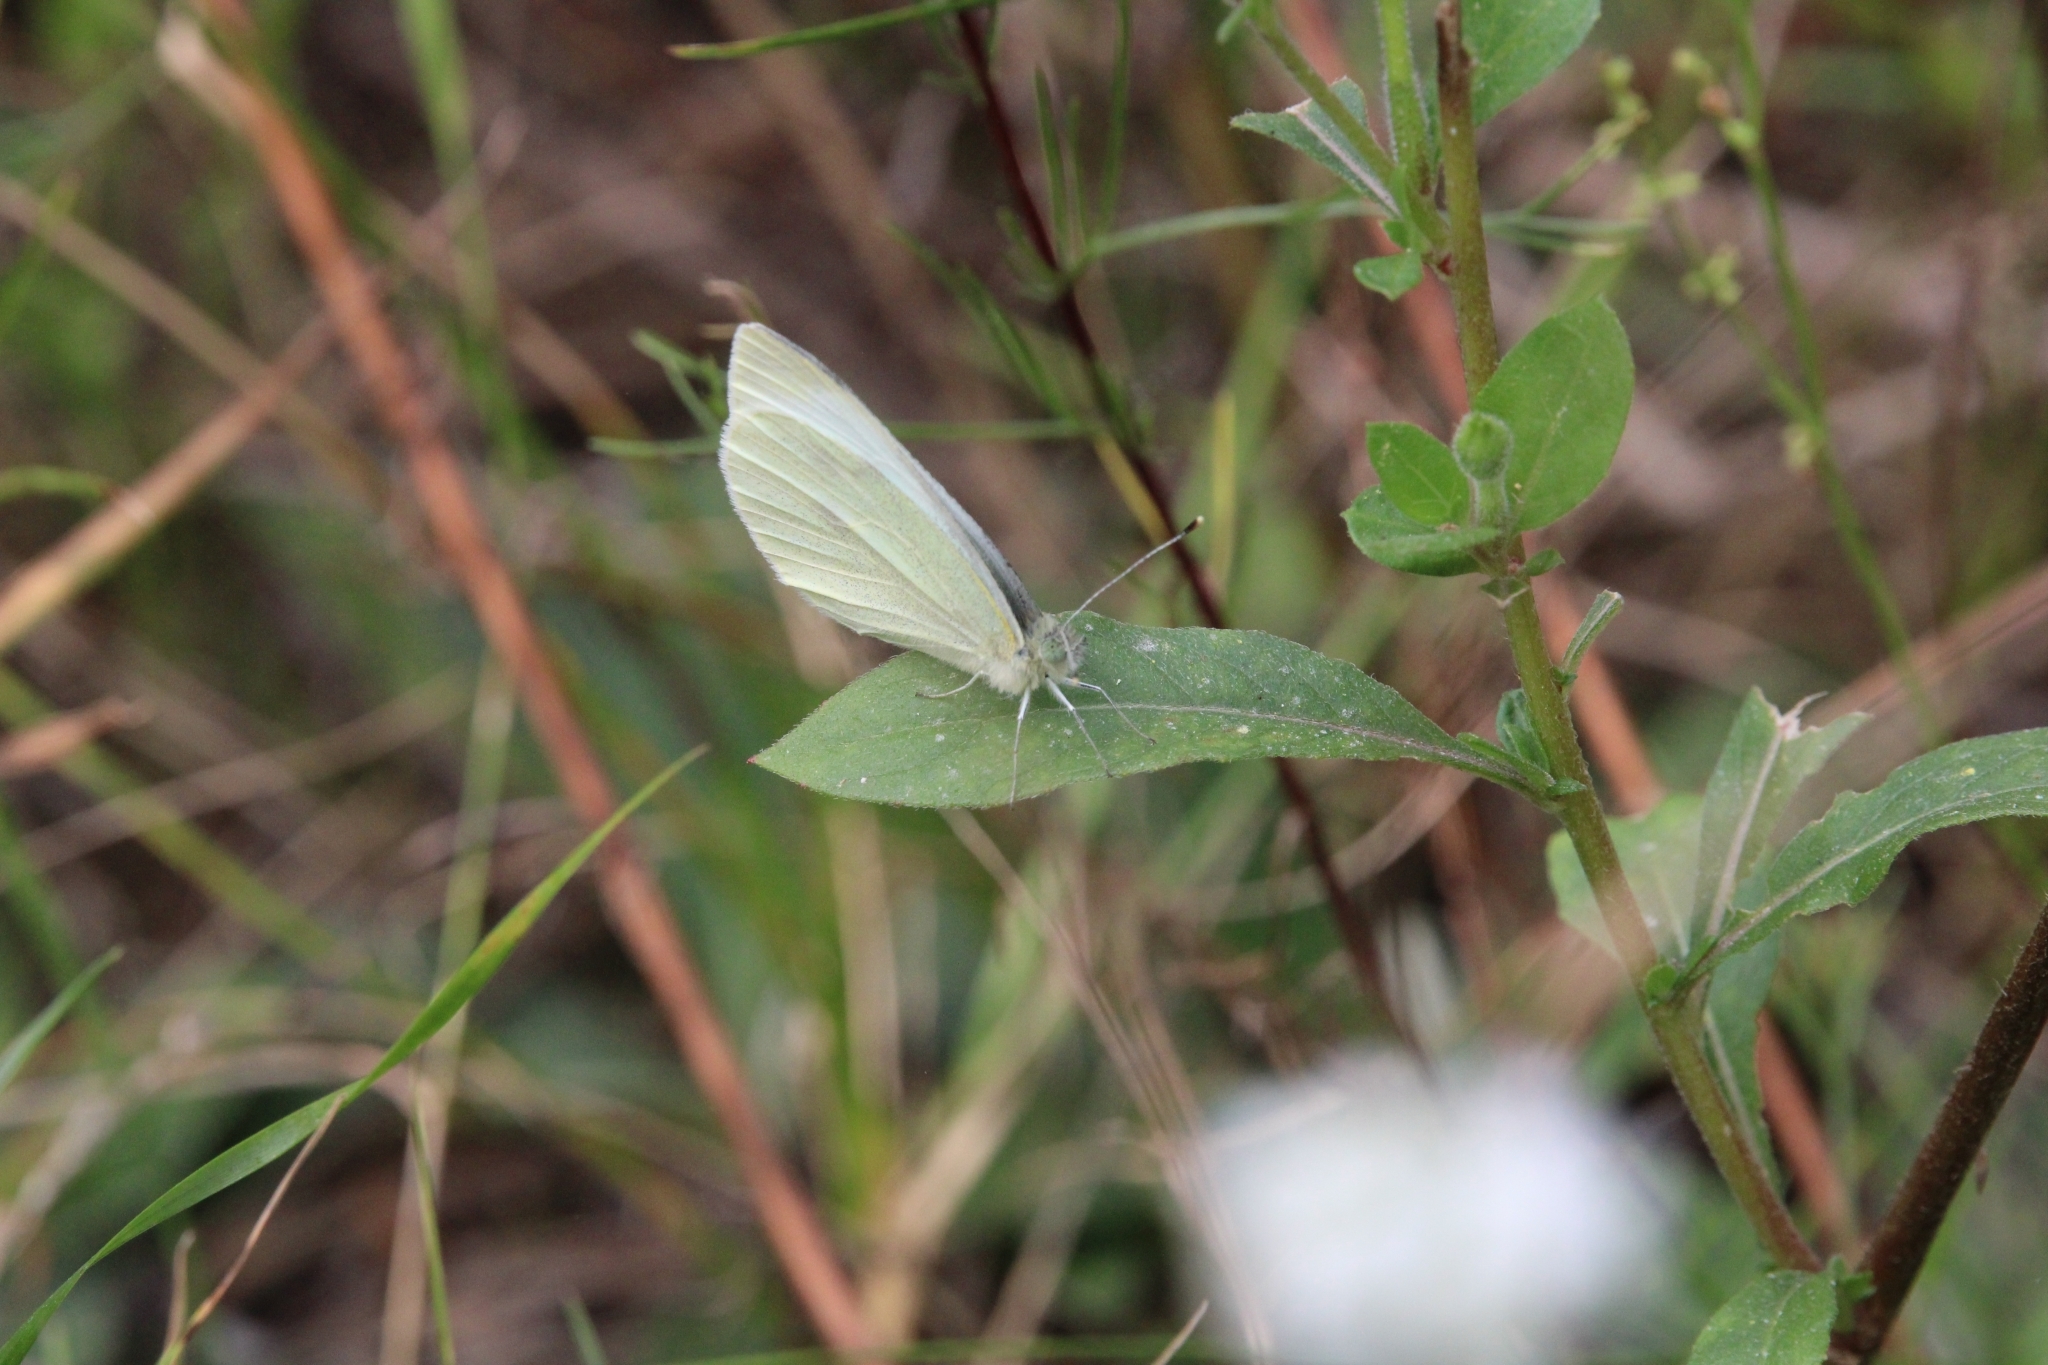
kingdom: Animalia
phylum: Arthropoda
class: Insecta
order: Lepidoptera
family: Pieridae
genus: Pieris
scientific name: Pieris rapae
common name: Small white
